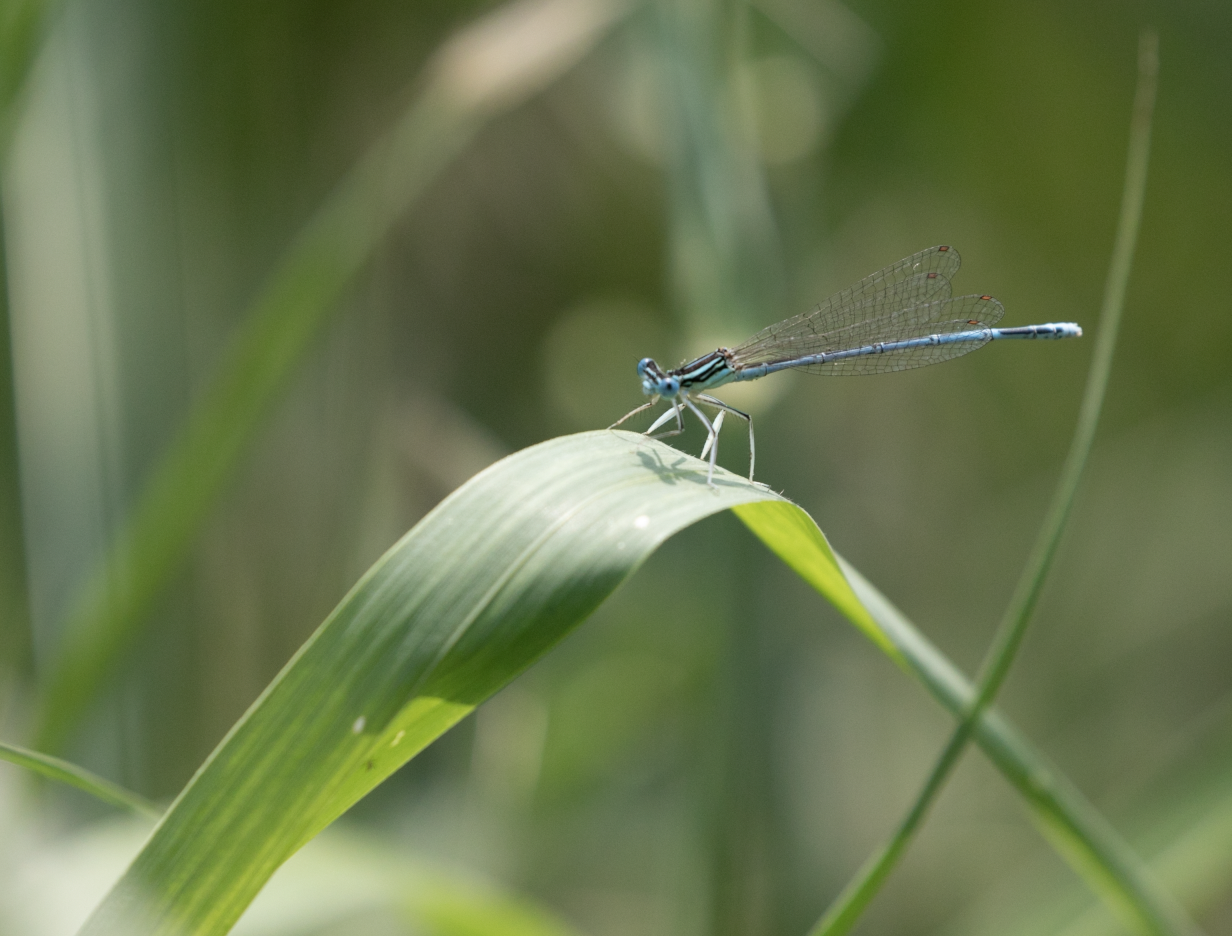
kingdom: Animalia
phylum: Arthropoda
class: Insecta
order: Odonata
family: Platycnemididae
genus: Platycnemis
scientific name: Platycnemis pennipes
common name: White-legged damselfly
